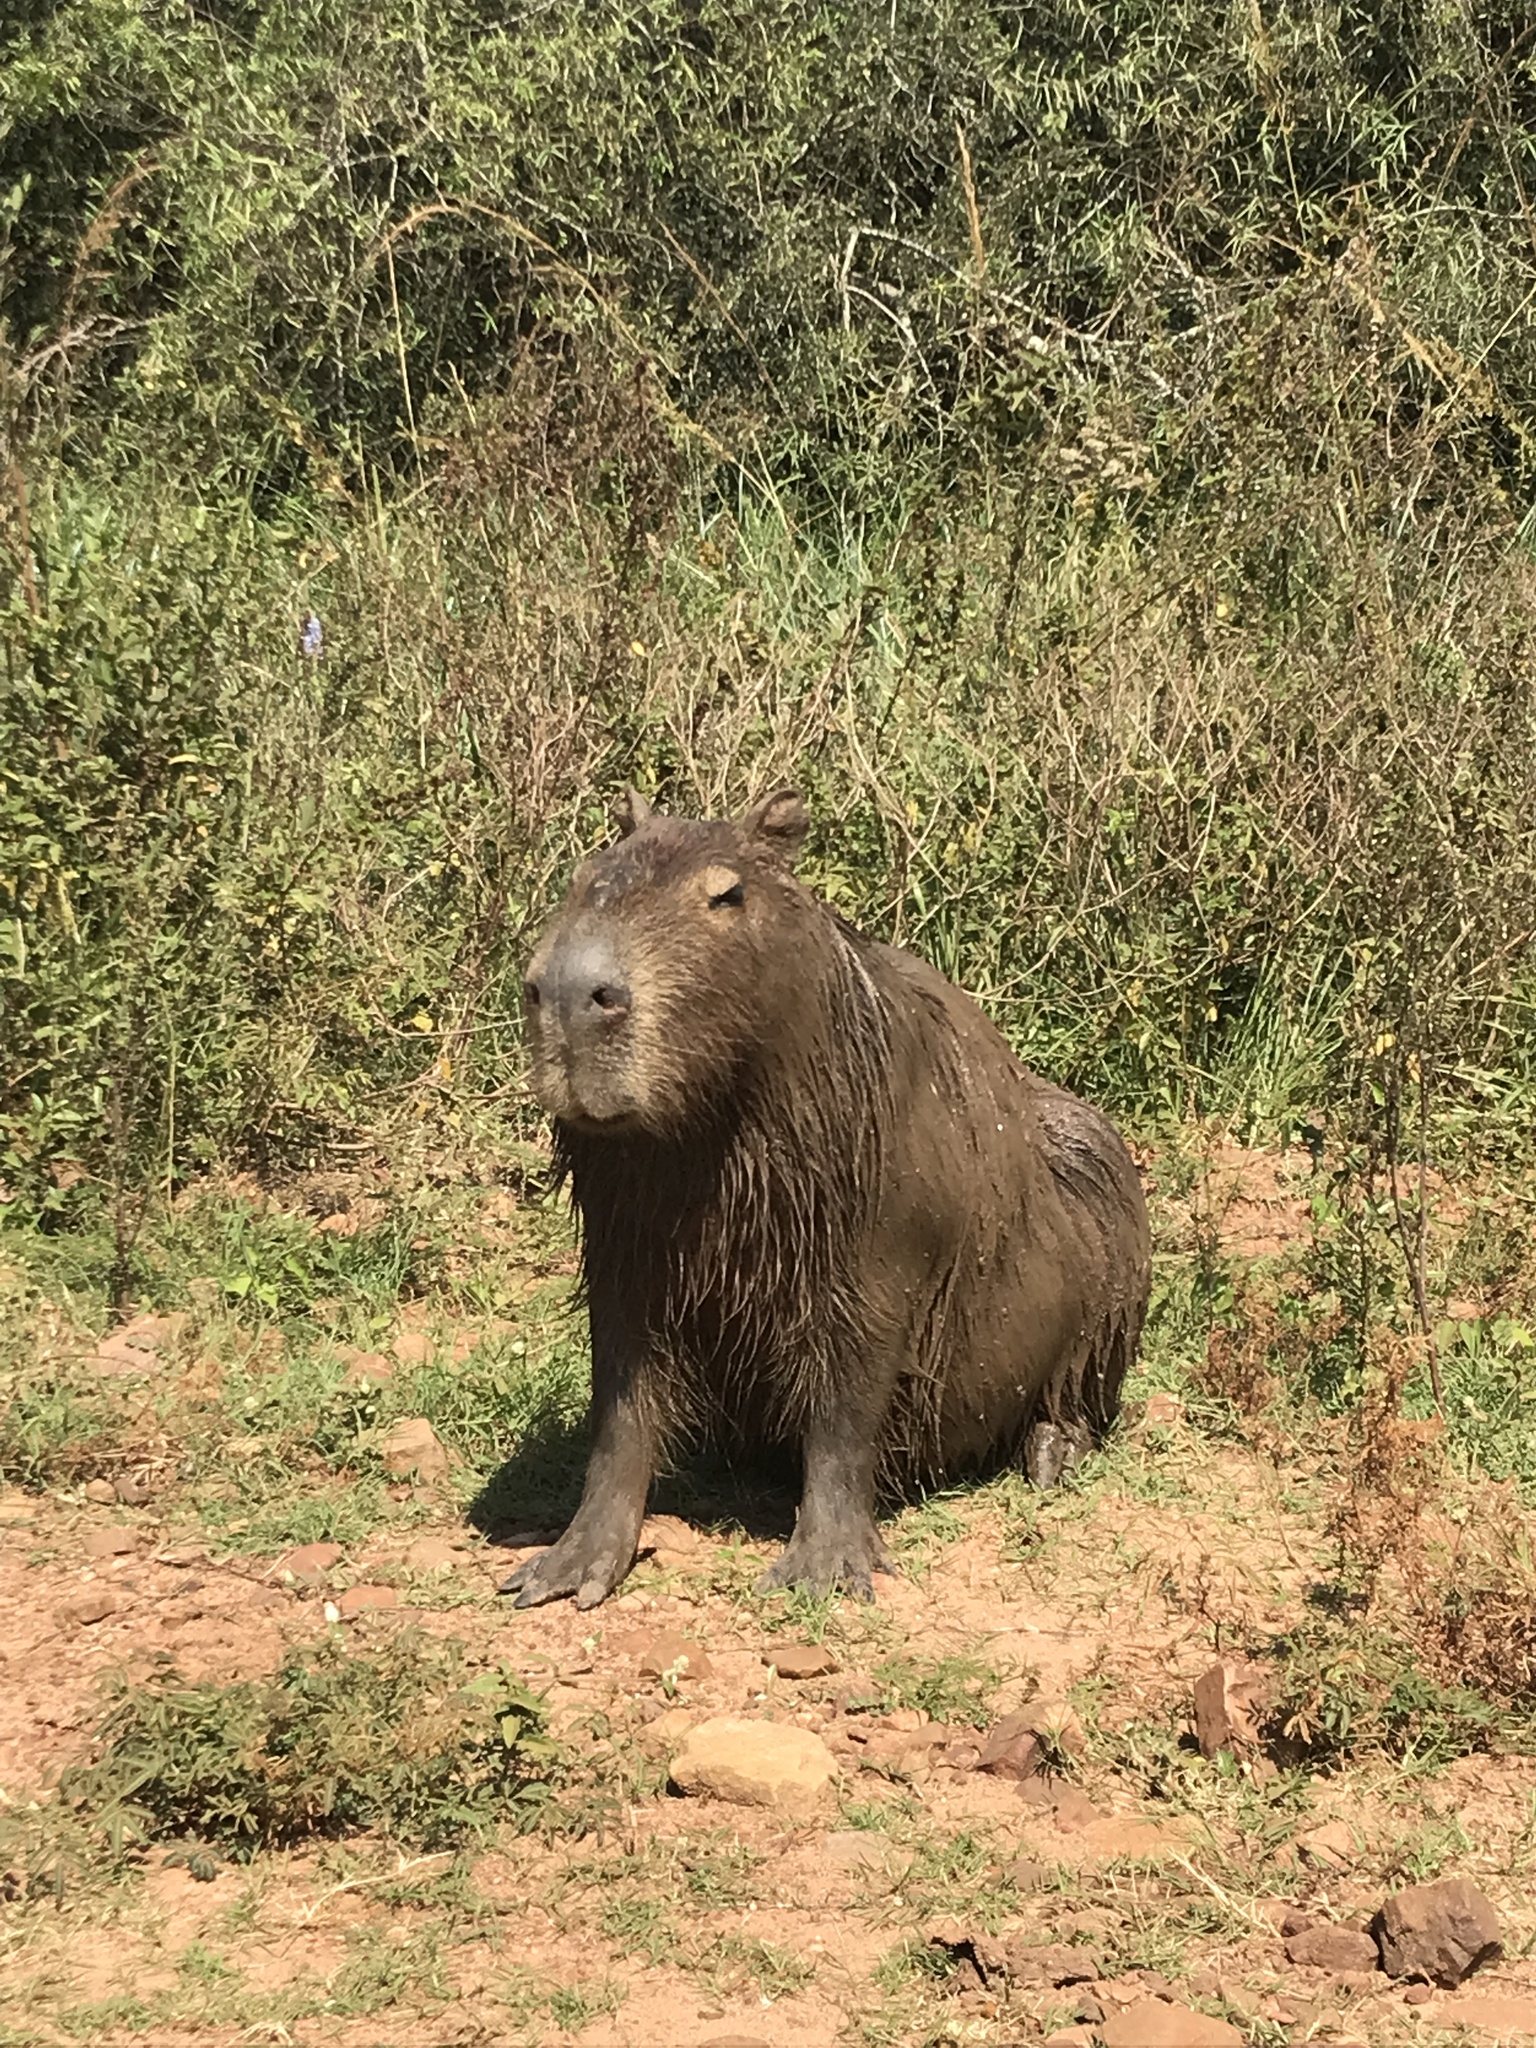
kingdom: Animalia
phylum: Chordata
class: Mammalia
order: Rodentia
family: Caviidae
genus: Hydrochoerus
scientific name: Hydrochoerus hydrochaeris
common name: Capybara
